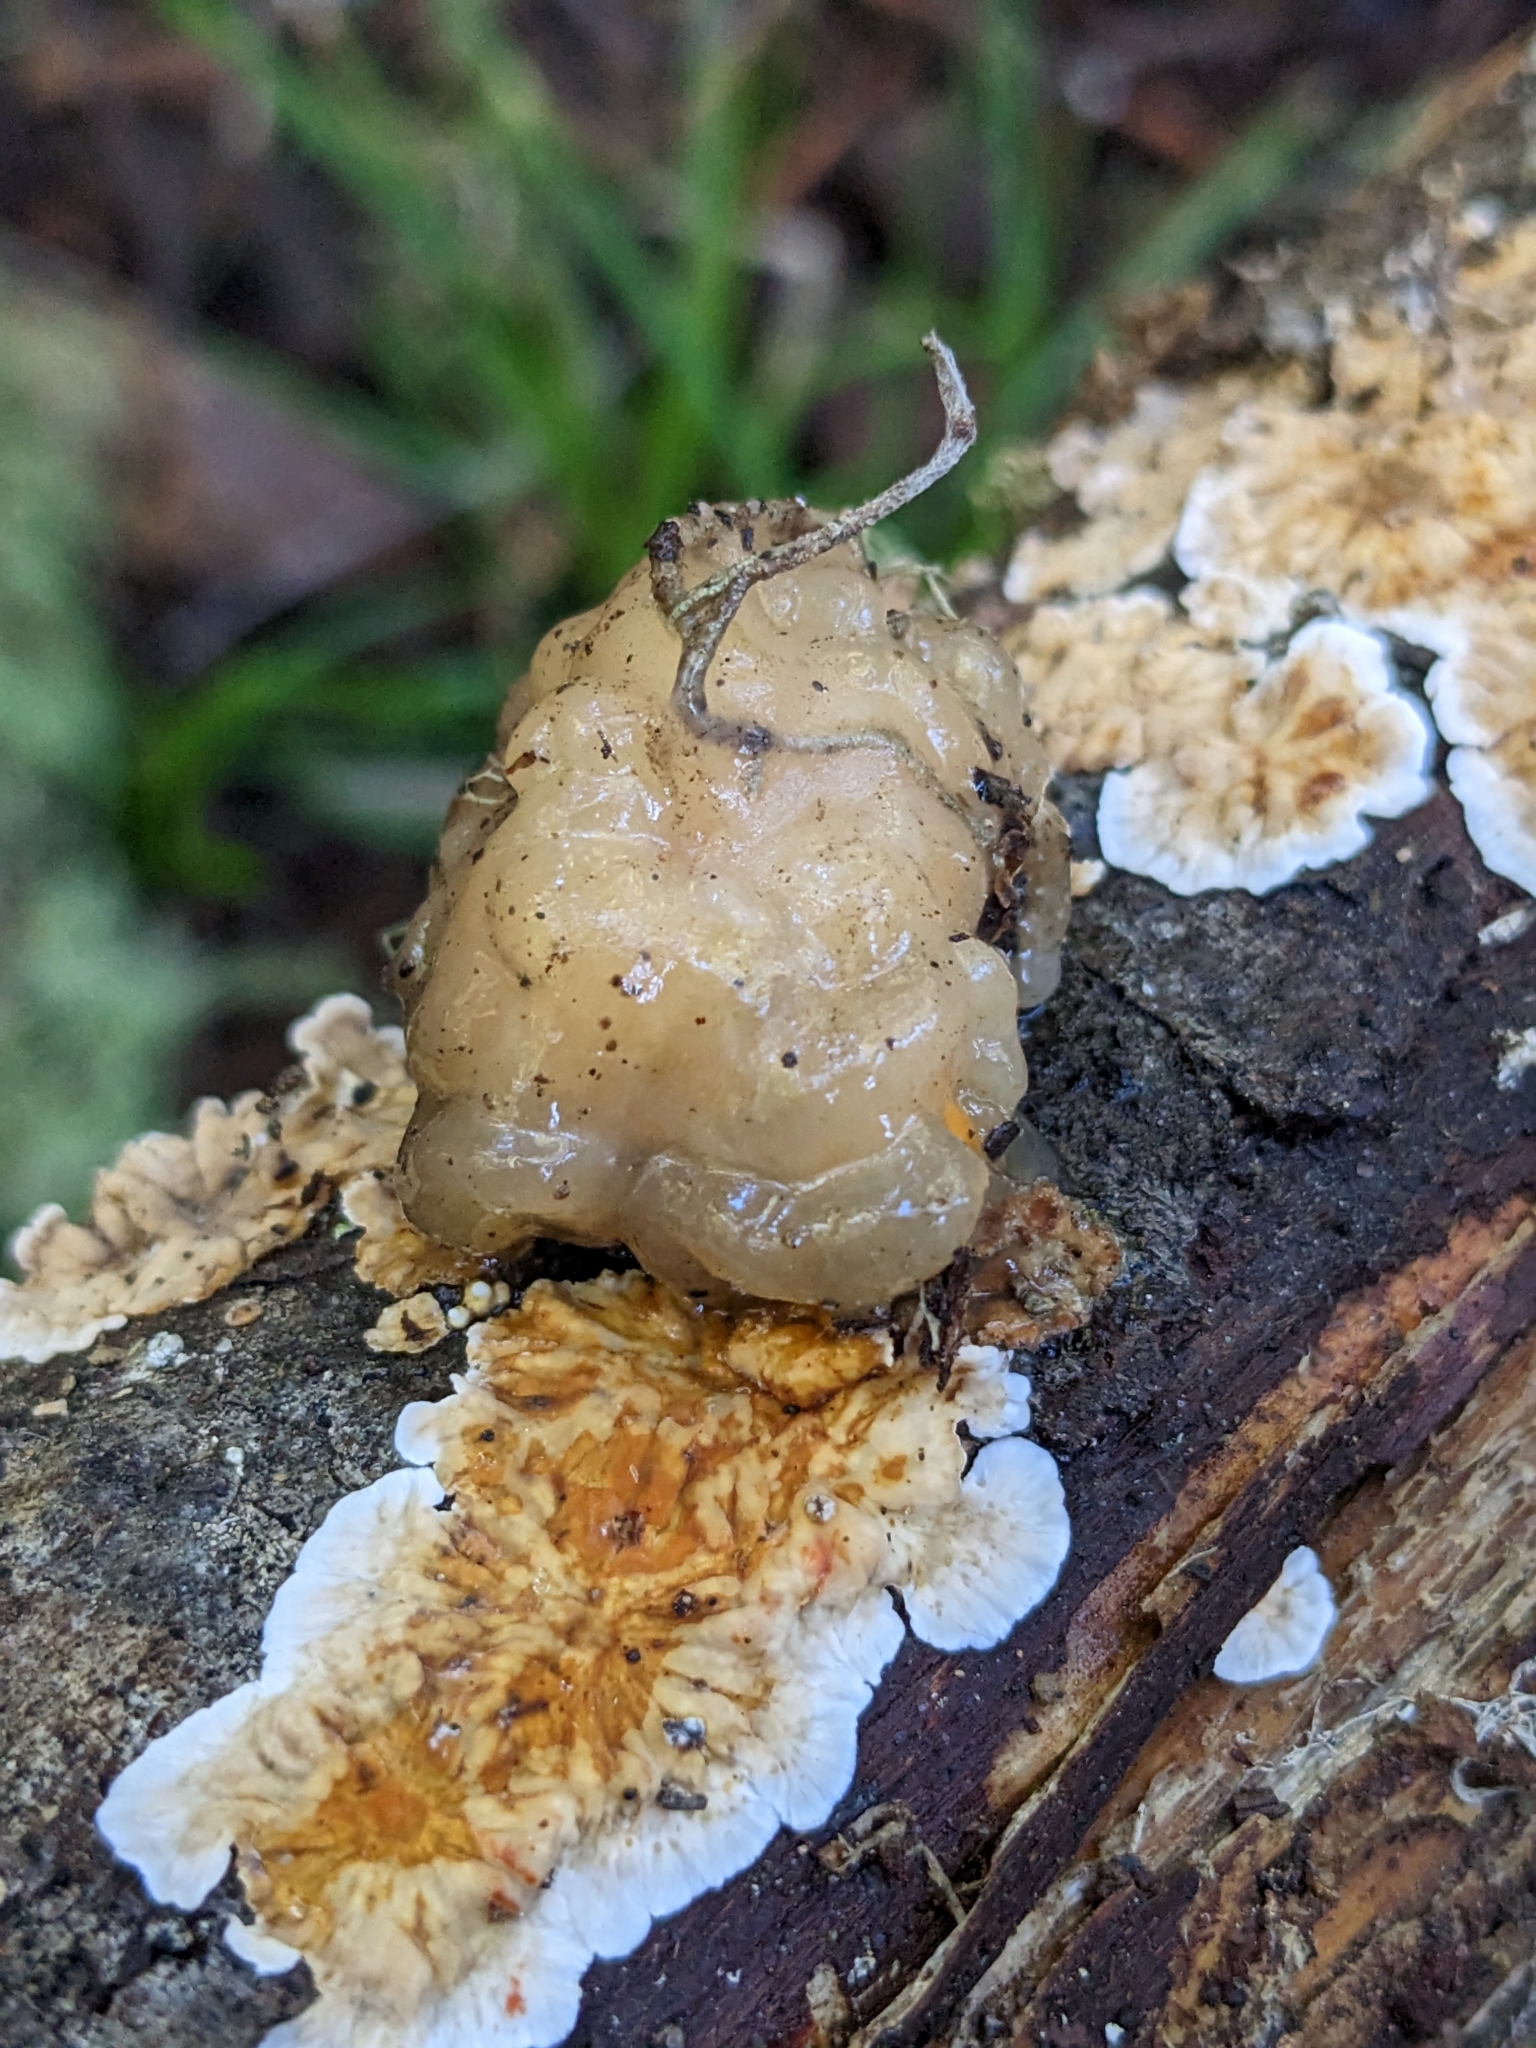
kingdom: Fungi
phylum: Basidiomycota
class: Agaricomycetes
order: Auriculariales
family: Hyaloriaceae
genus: Myxarium
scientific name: Myxarium nucleatum
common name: Crystal brain fungus
